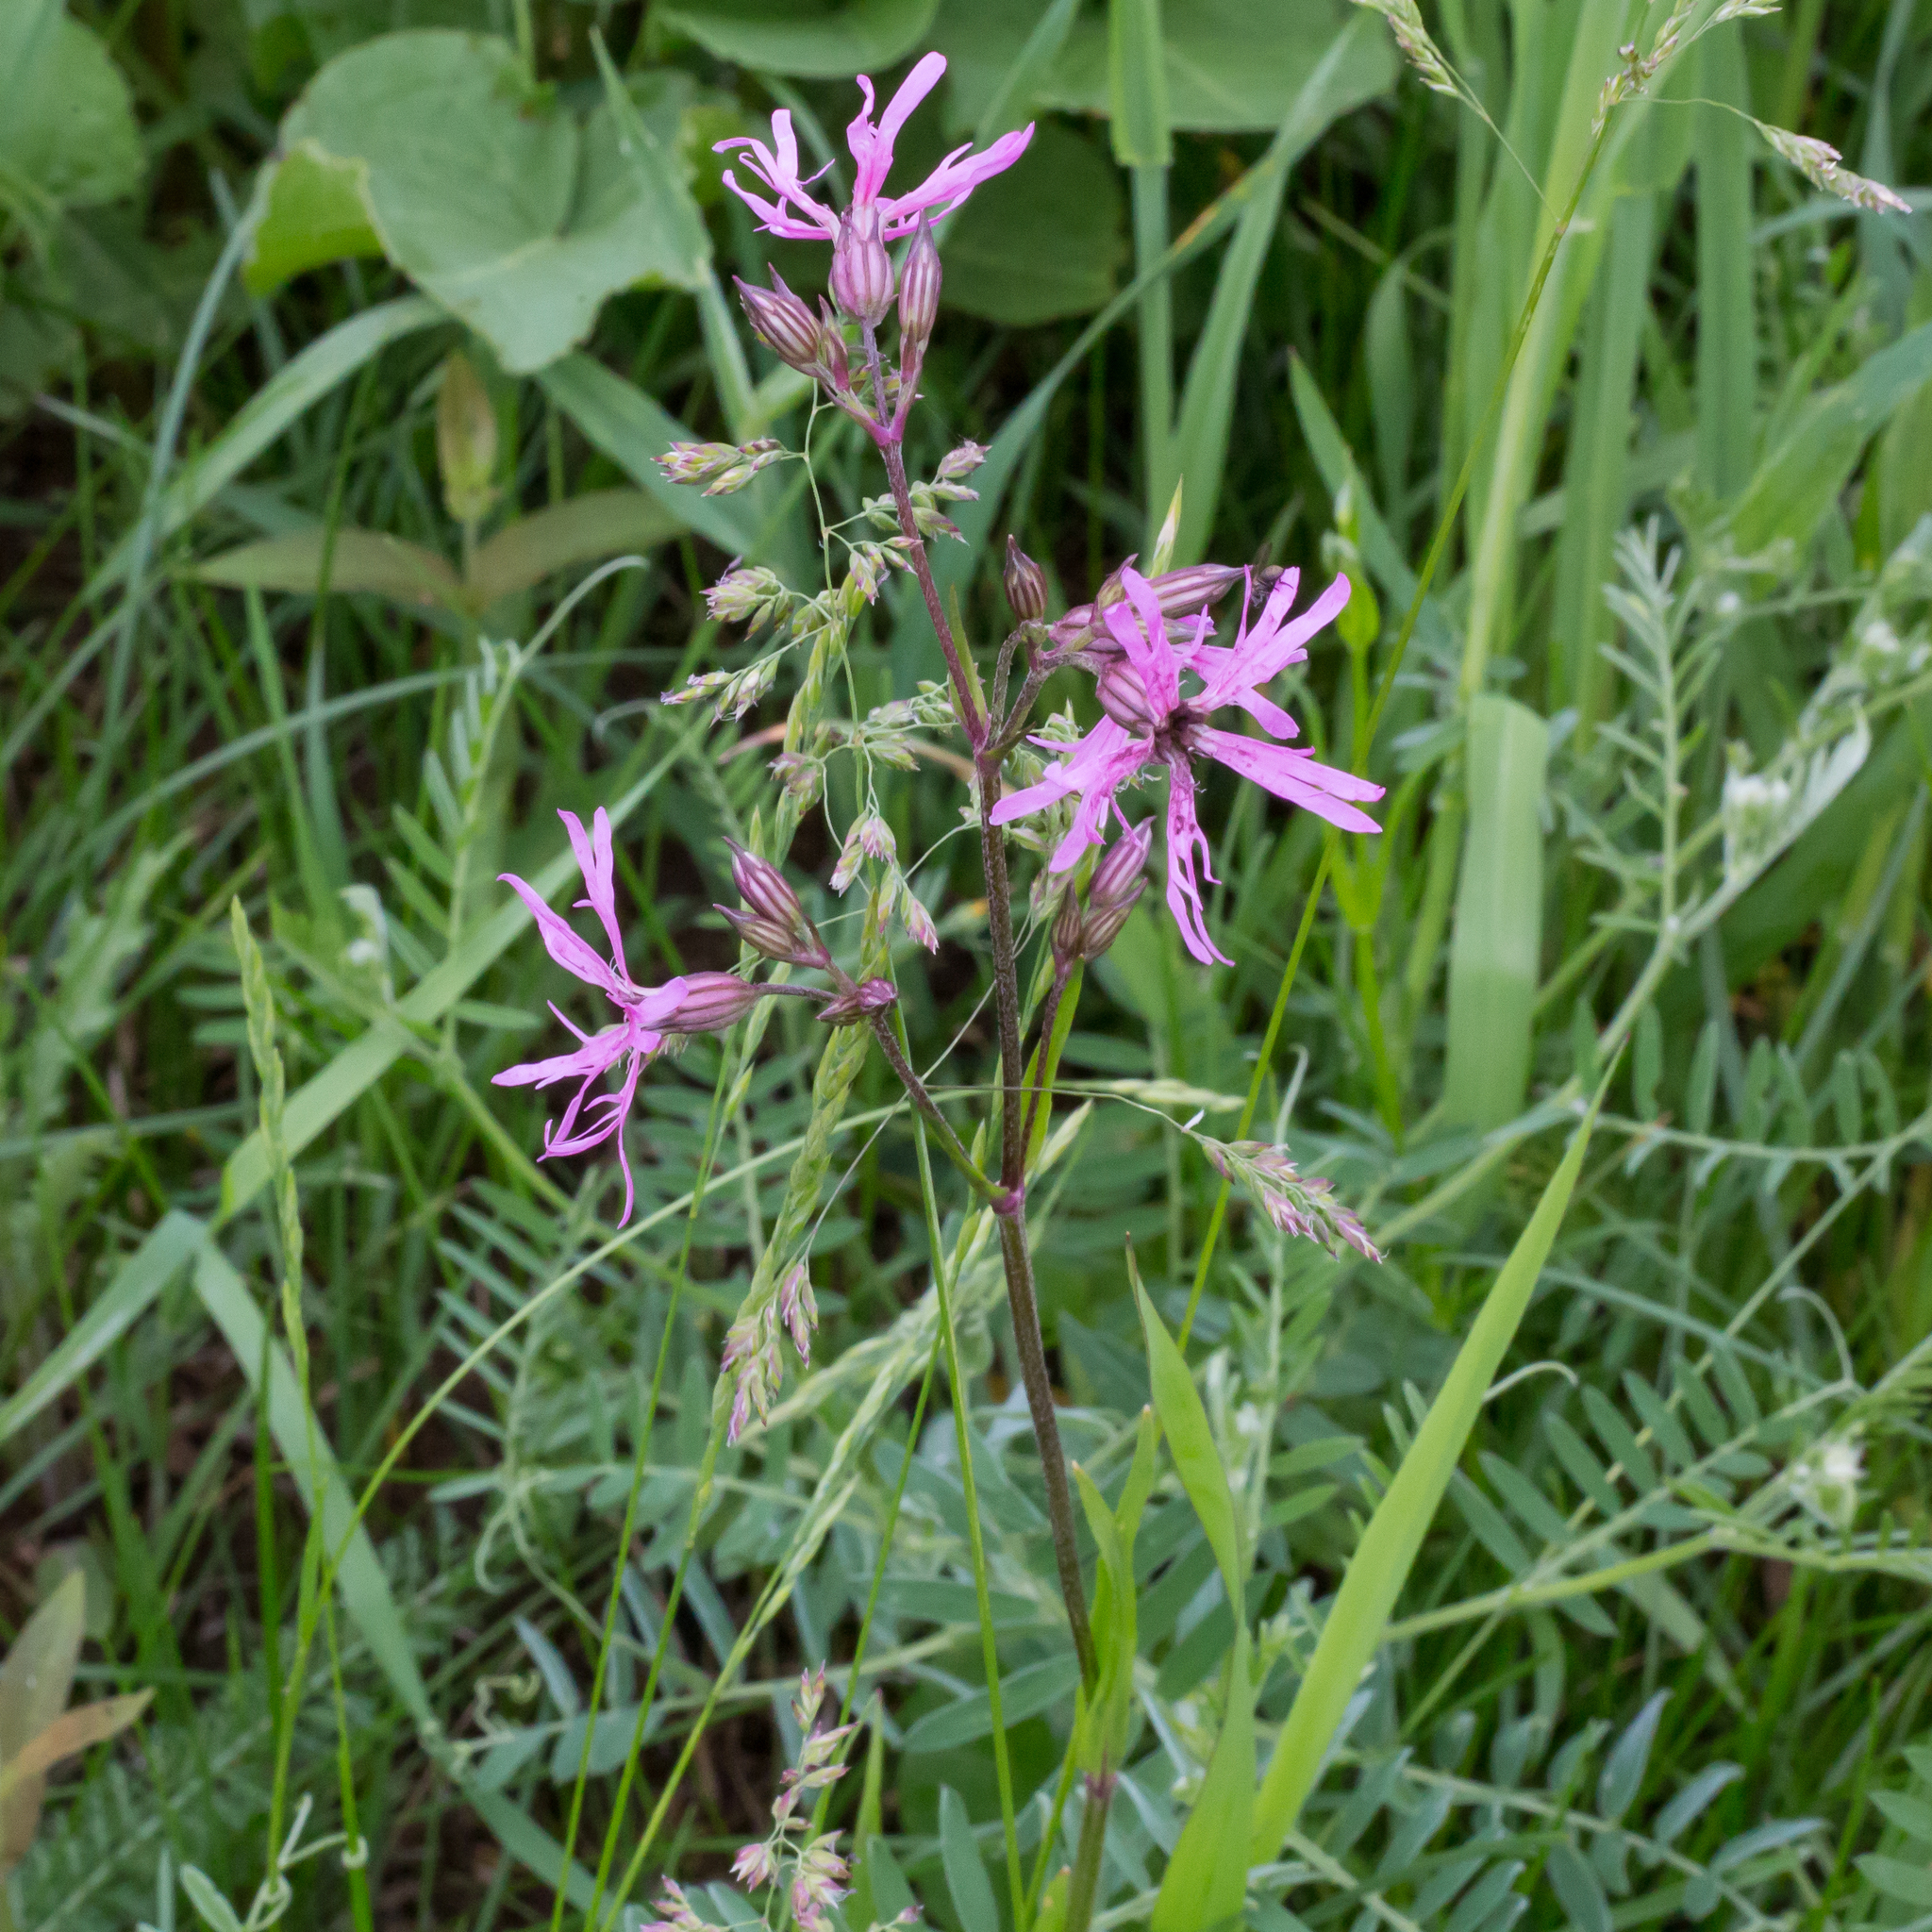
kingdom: Plantae
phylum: Tracheophyta
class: Magnoliopsida
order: Caryophyllales
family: Caryophyllaceae
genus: Silene
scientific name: Silene flos-cuculi
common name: Ragged-robin
